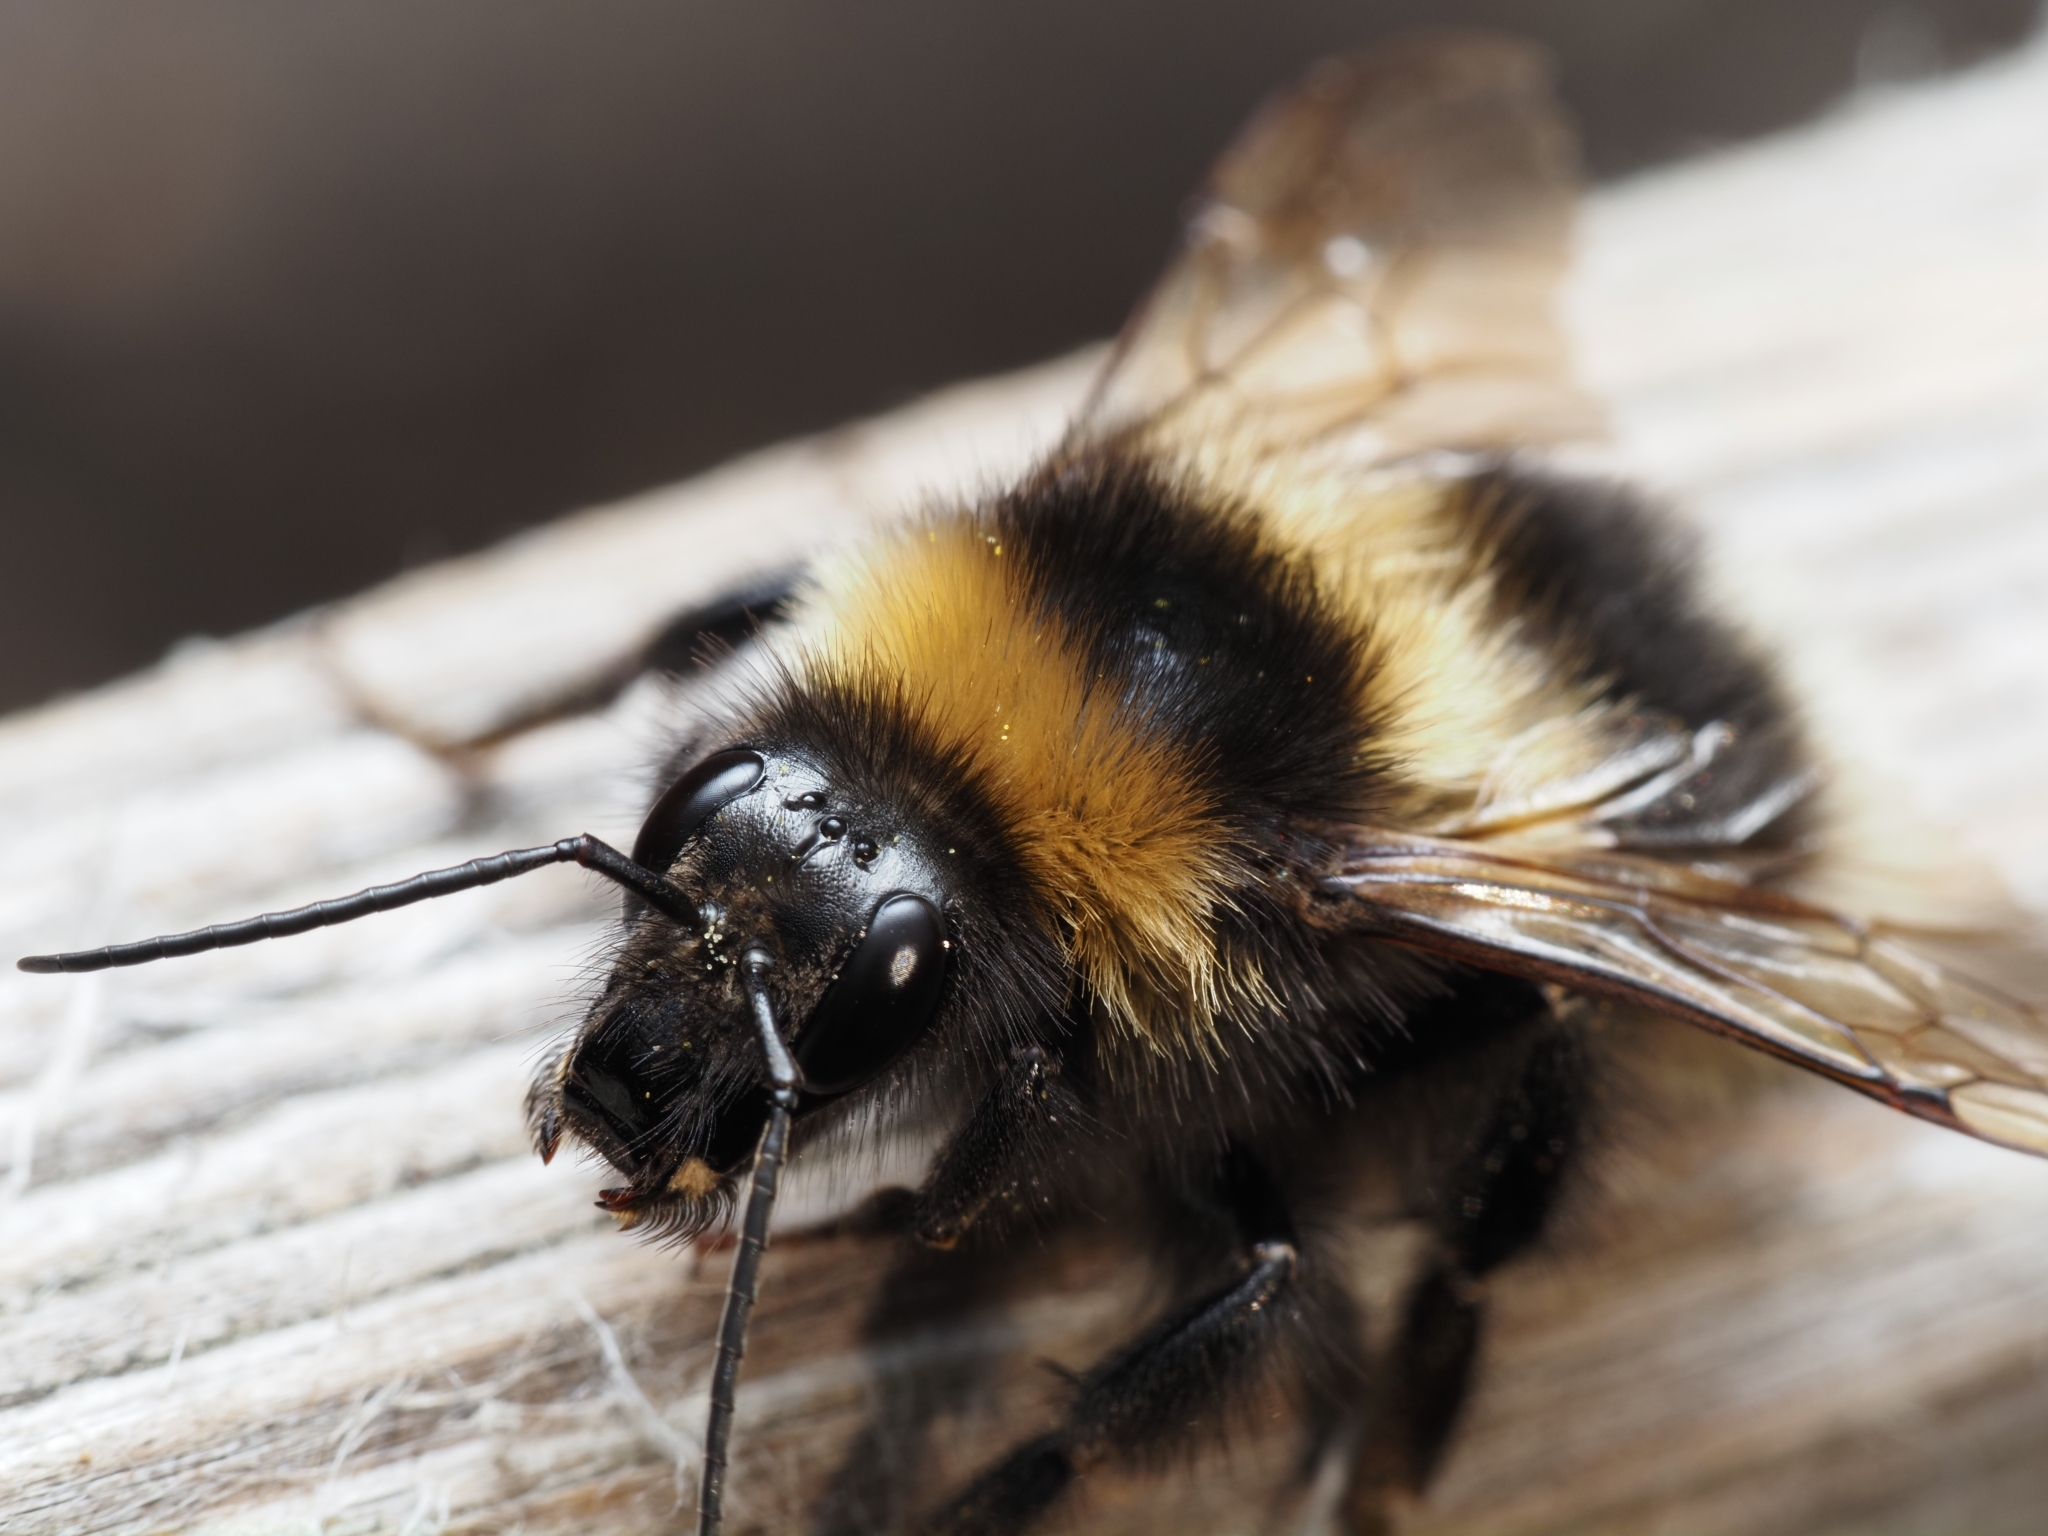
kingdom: Animalia
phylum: Arthropoda
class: Insecta
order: Hymenoptera
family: Apidae
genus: Bombus
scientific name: Bombus hortorum
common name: Garden bumblebee
